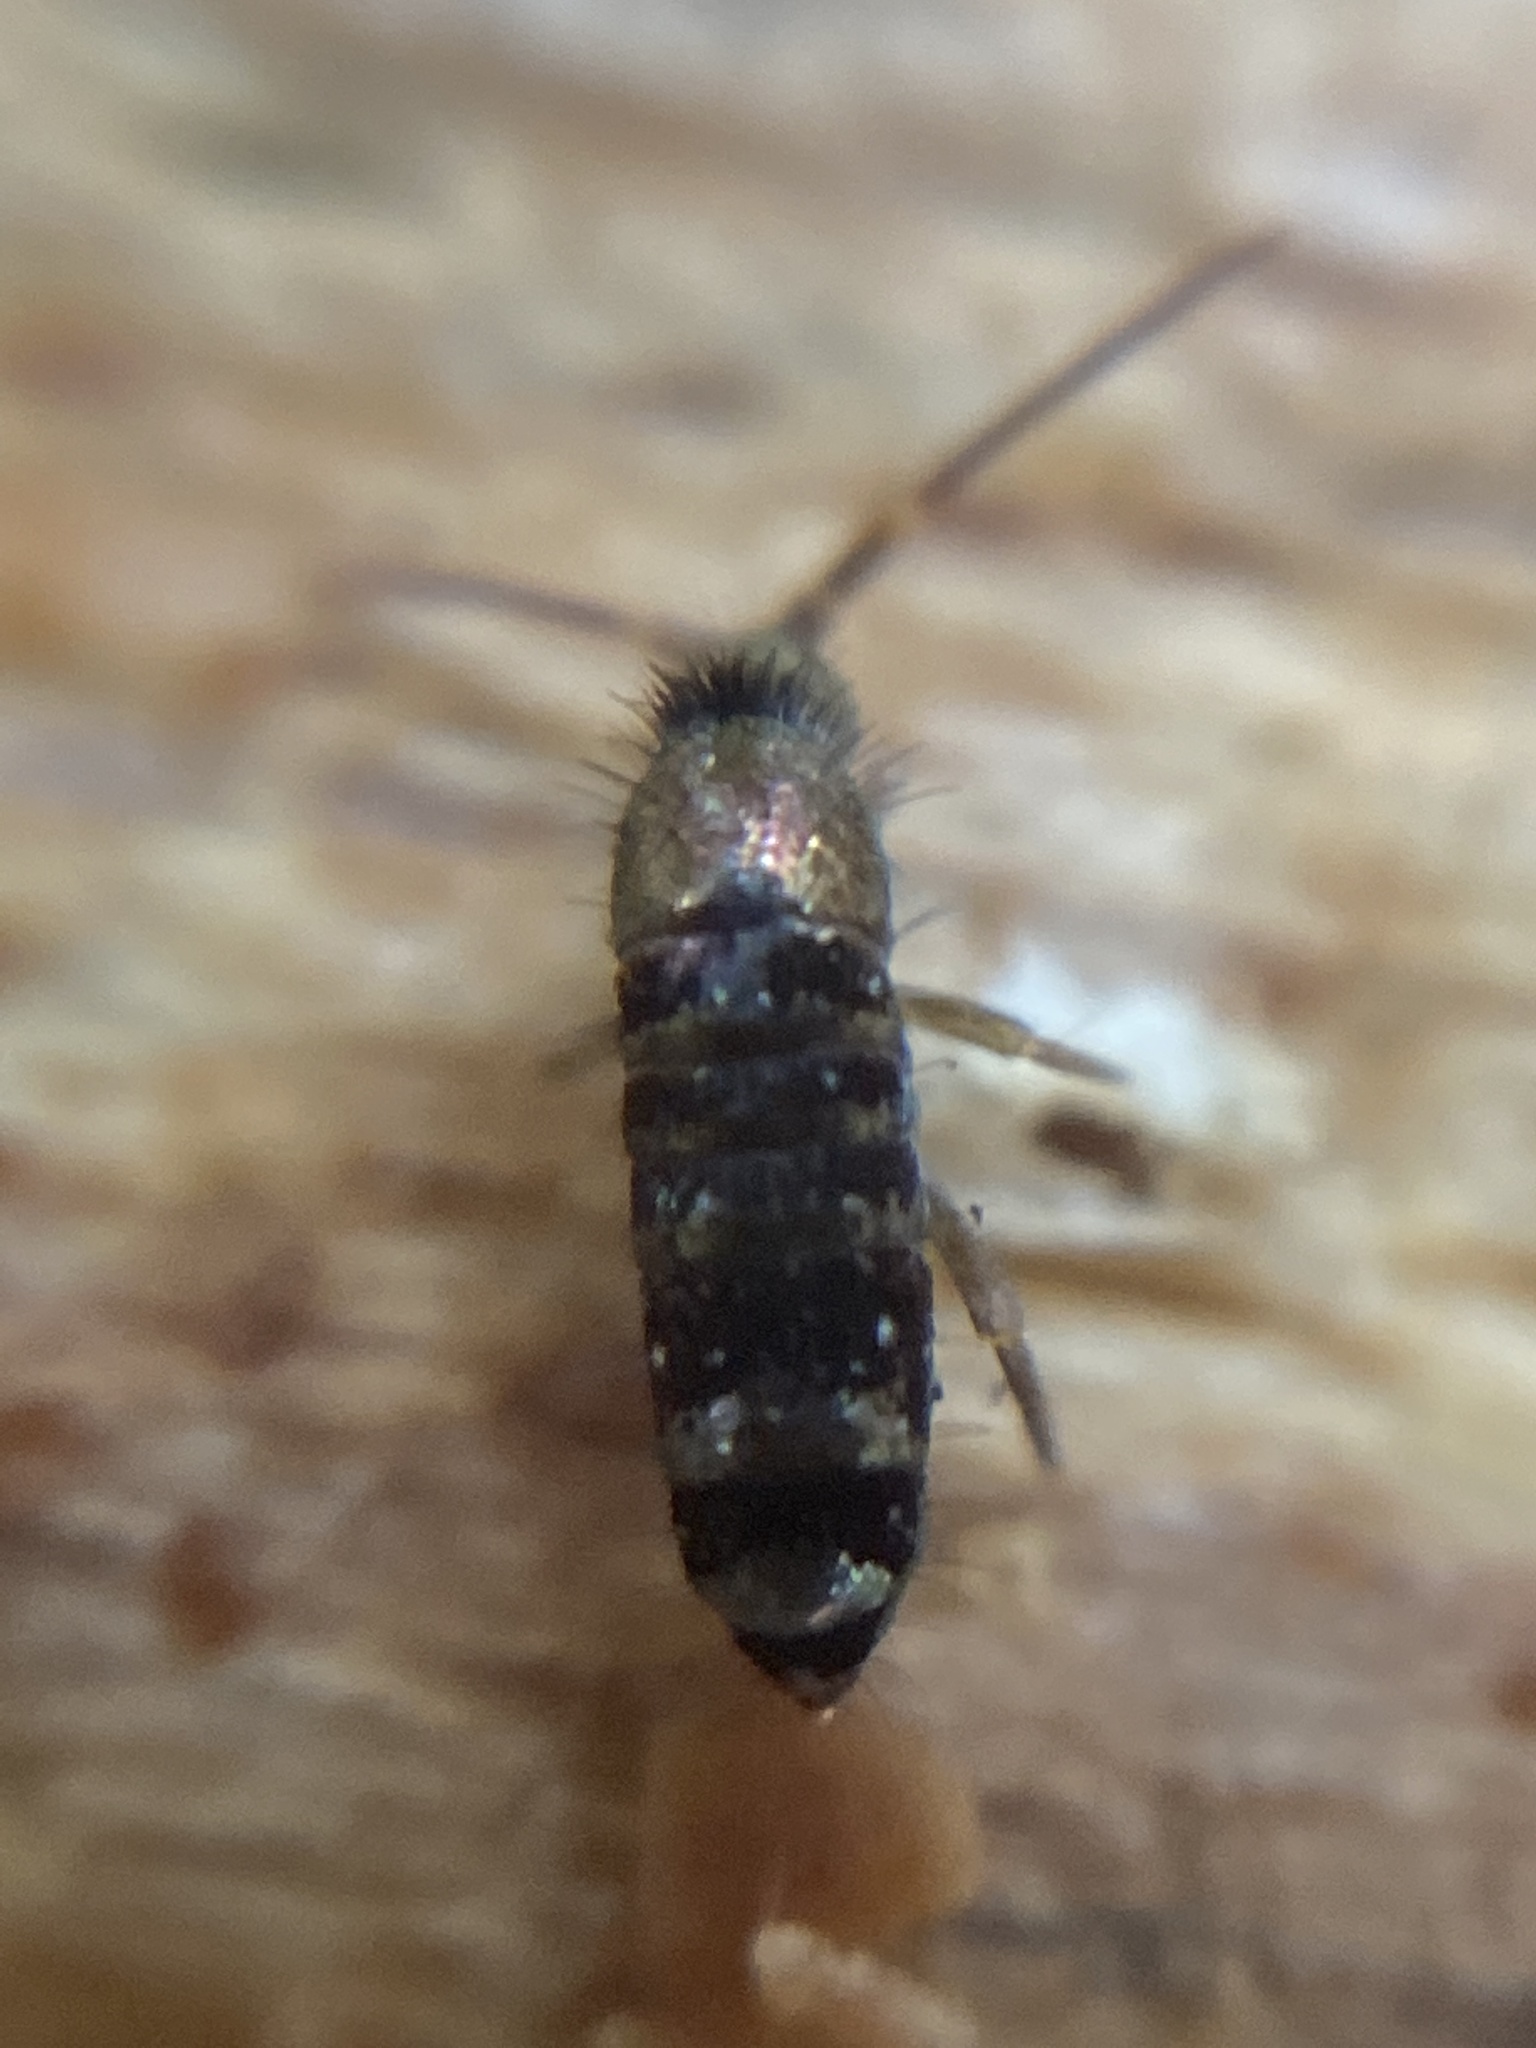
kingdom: Animalia
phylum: Arthropoda
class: Collembola
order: Entomobryomorpha
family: Tomoceridae
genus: Tomocerus
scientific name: Tomocerus vulgaris
